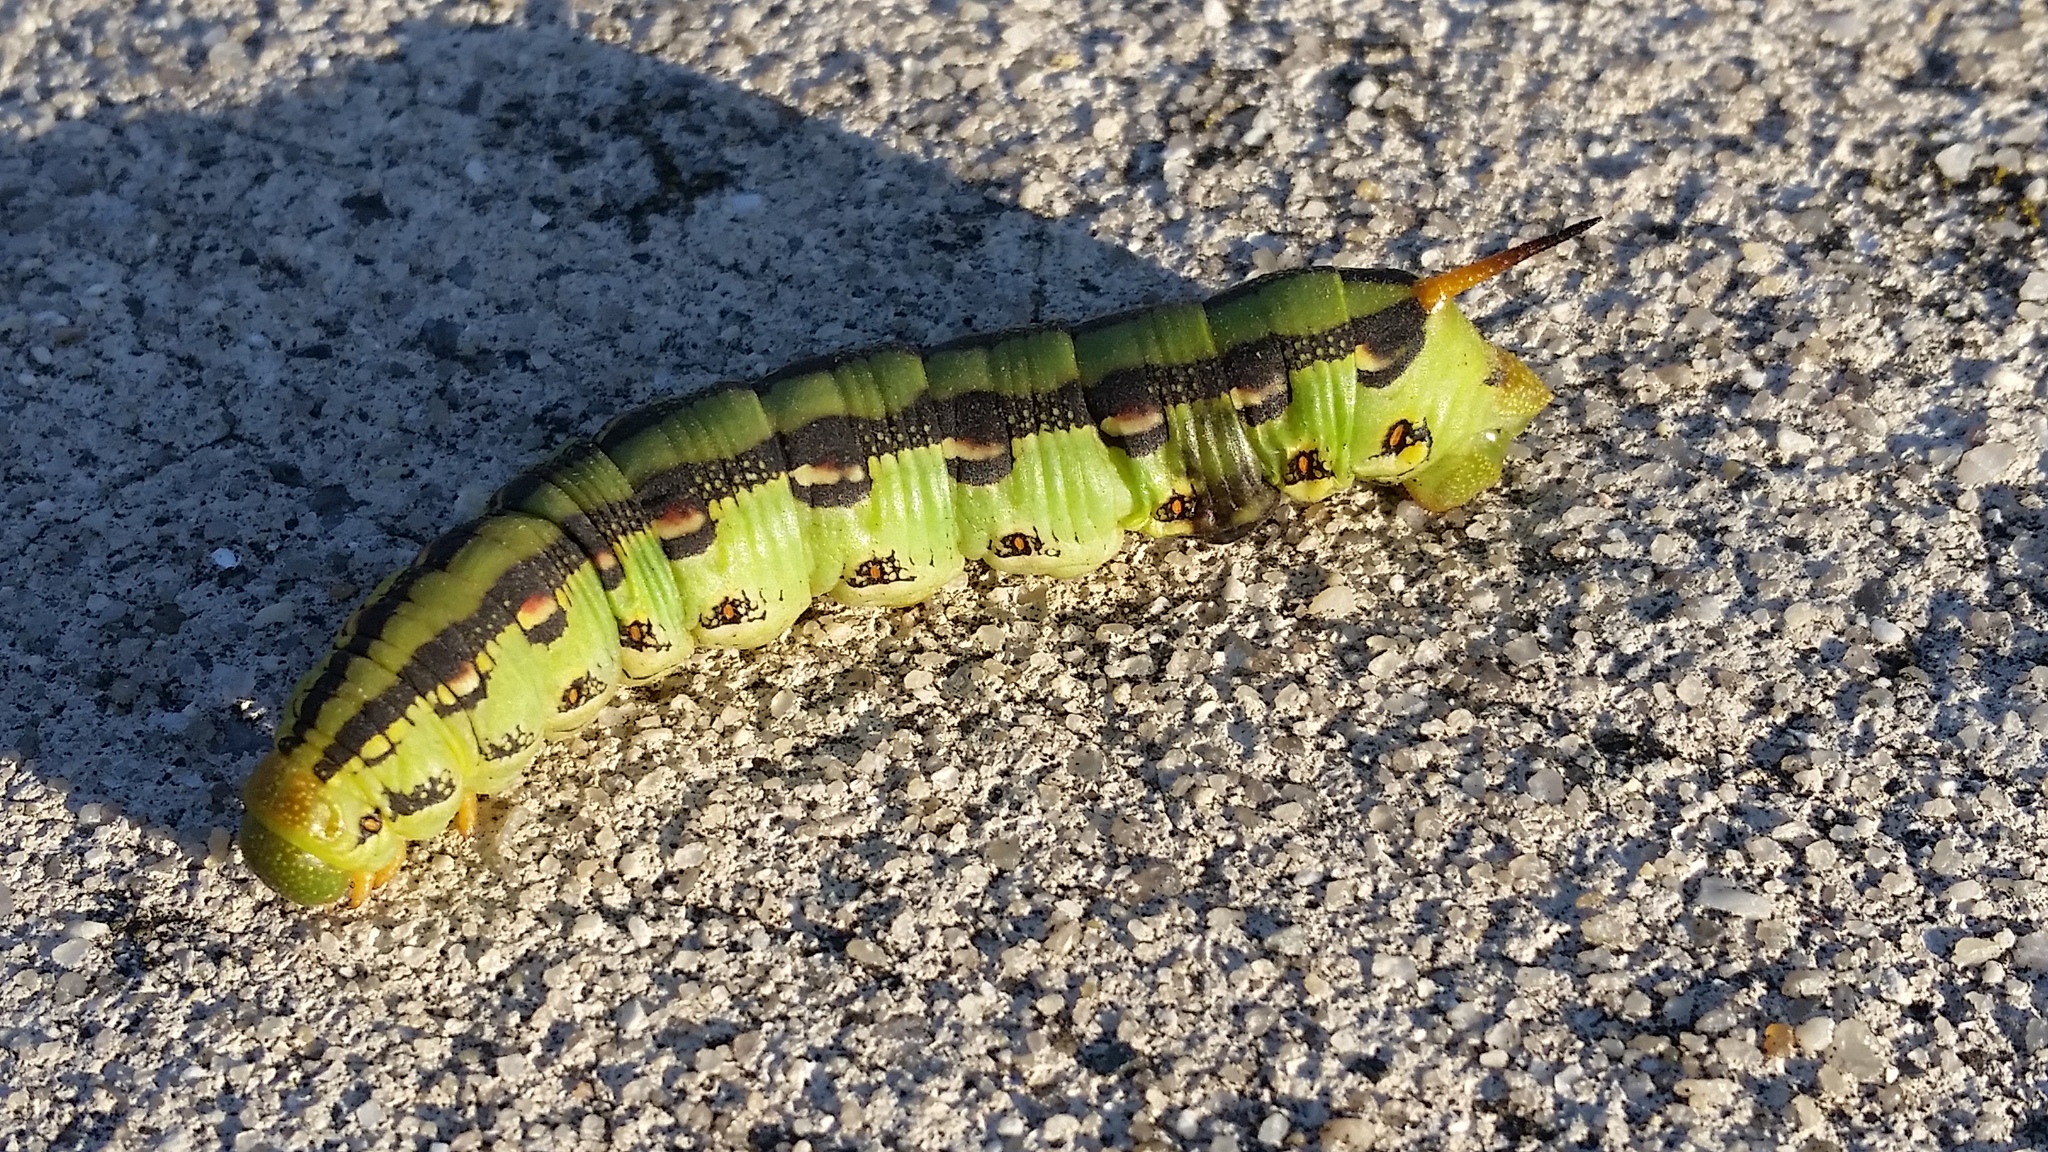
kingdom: Animalia
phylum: Arthropoda
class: Insecta
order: Lepidoptera
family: Sphingidae
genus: Hyles
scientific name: Hyles lineata
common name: White-lined sphinx
